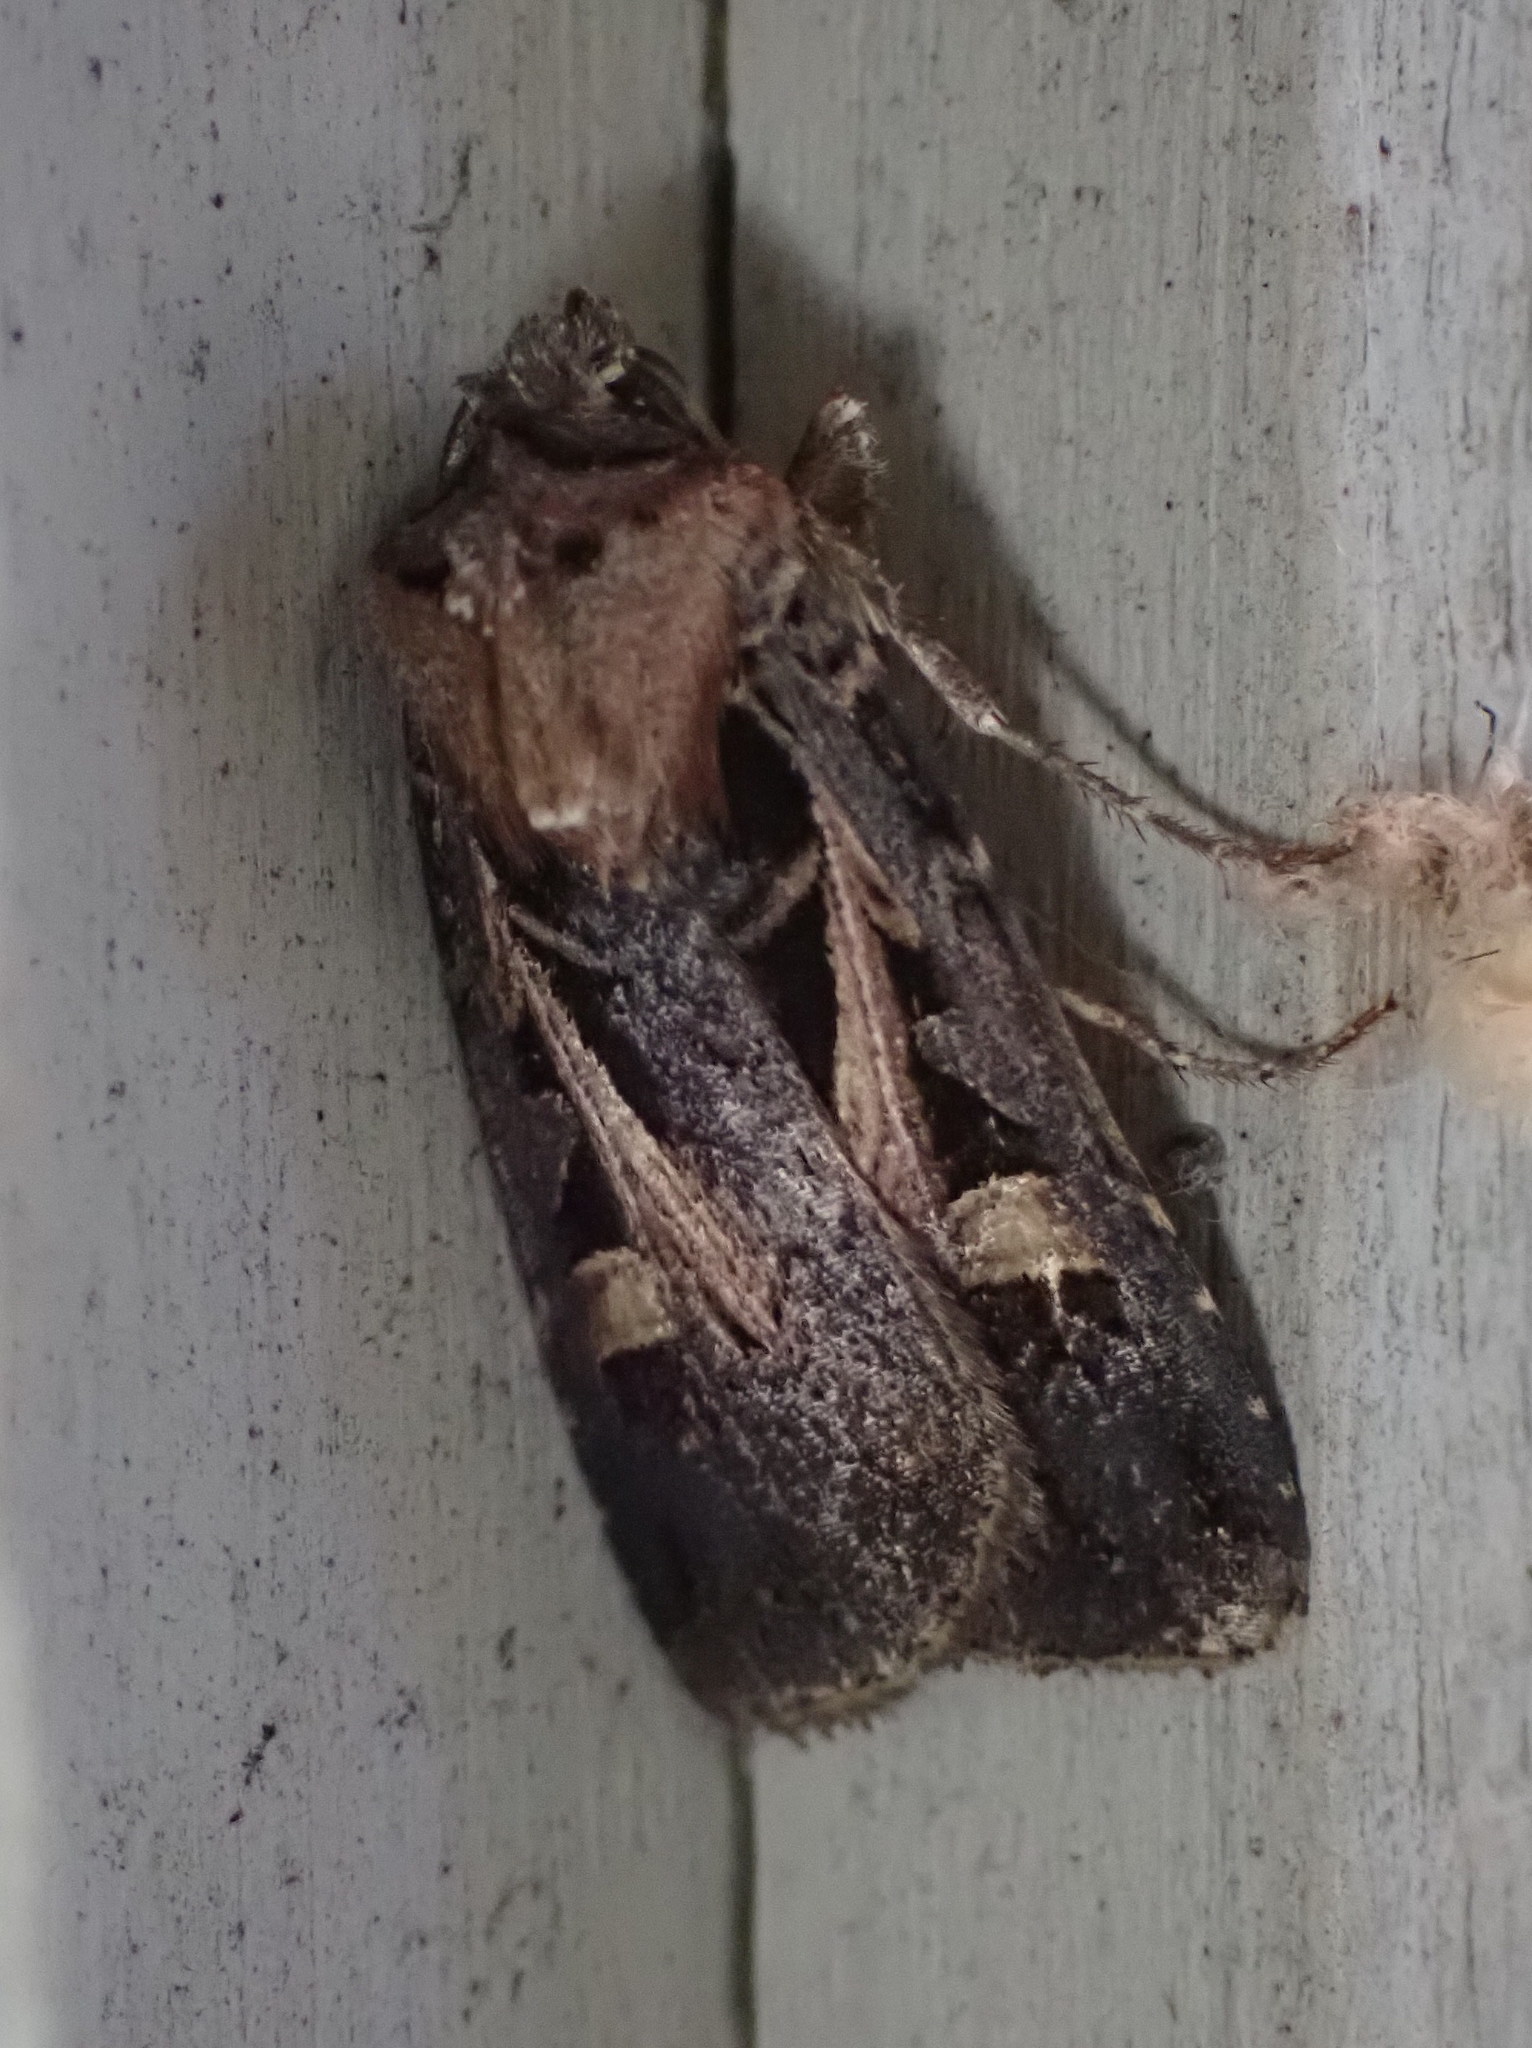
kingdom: Animalia
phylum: Arthropoda
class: Insecta
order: Lepidoptera
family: Noctuidae
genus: Feltia
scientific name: Feltia herilis
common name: Master's dart
